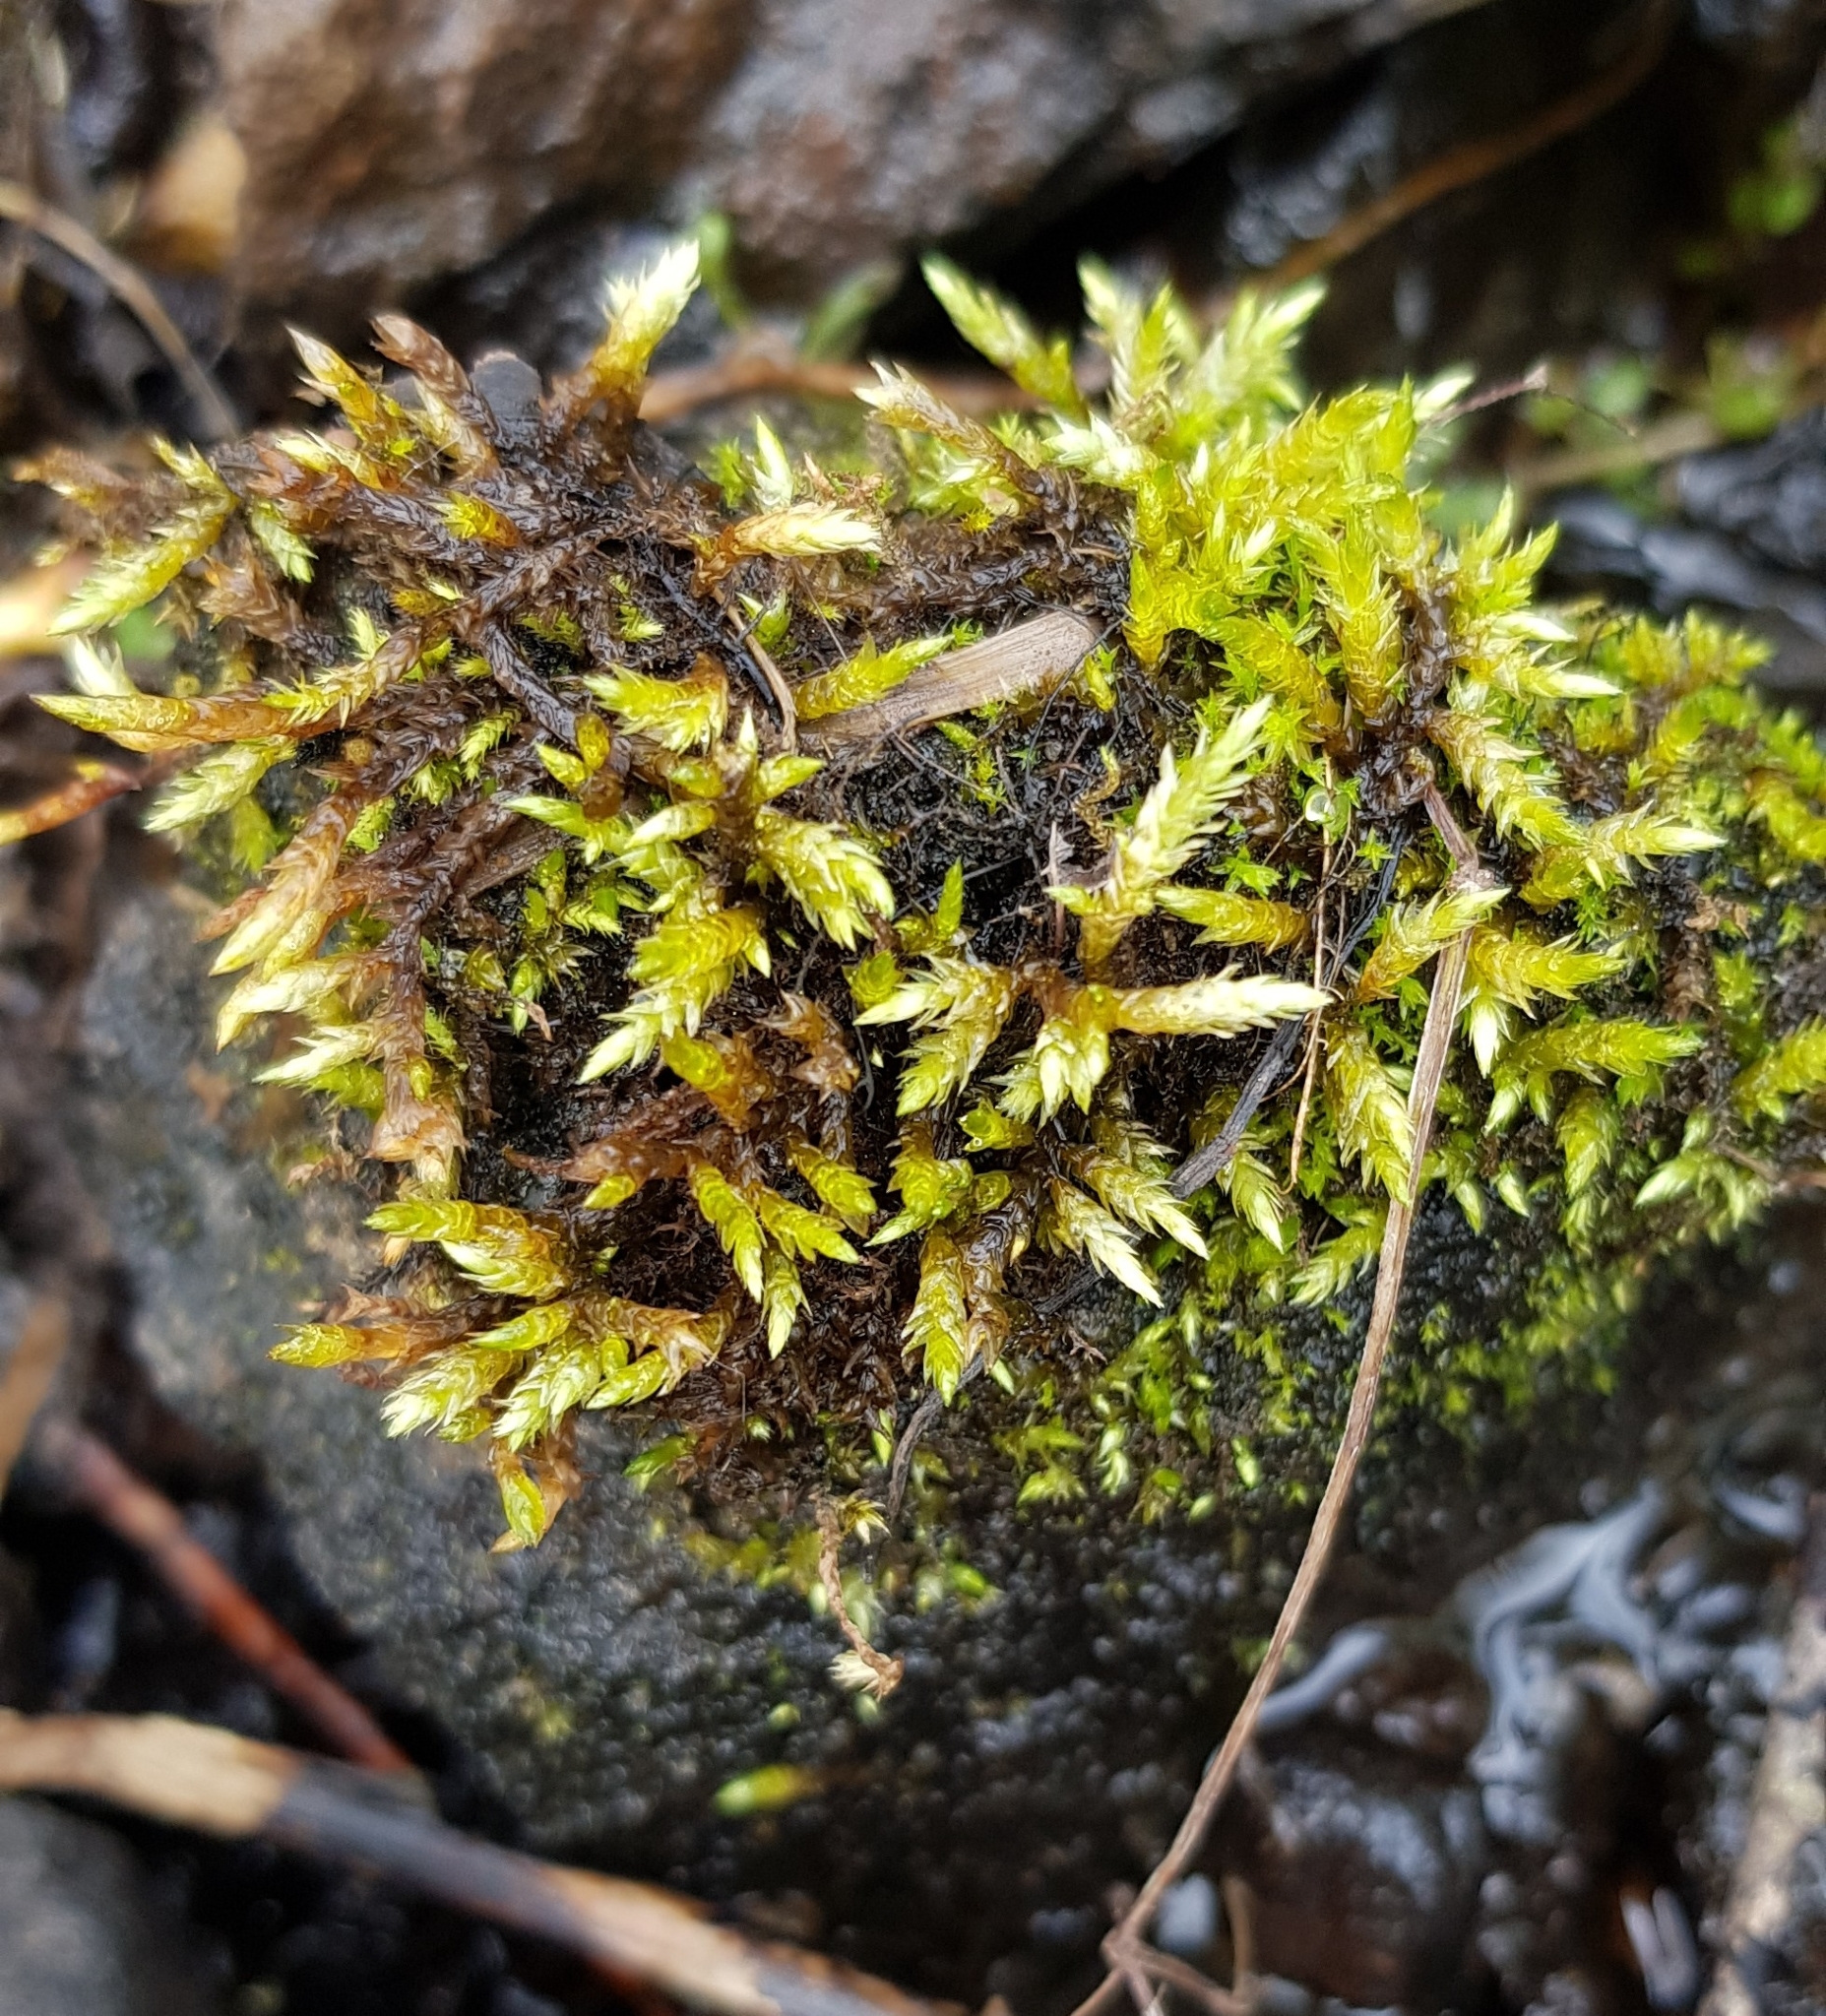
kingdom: Plantae
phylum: Bryophyta
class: Bryopsida
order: Hypnales
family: Brachytheciaceae
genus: Brachythecium
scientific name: Brachythecium rivulare
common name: River ragged moss
